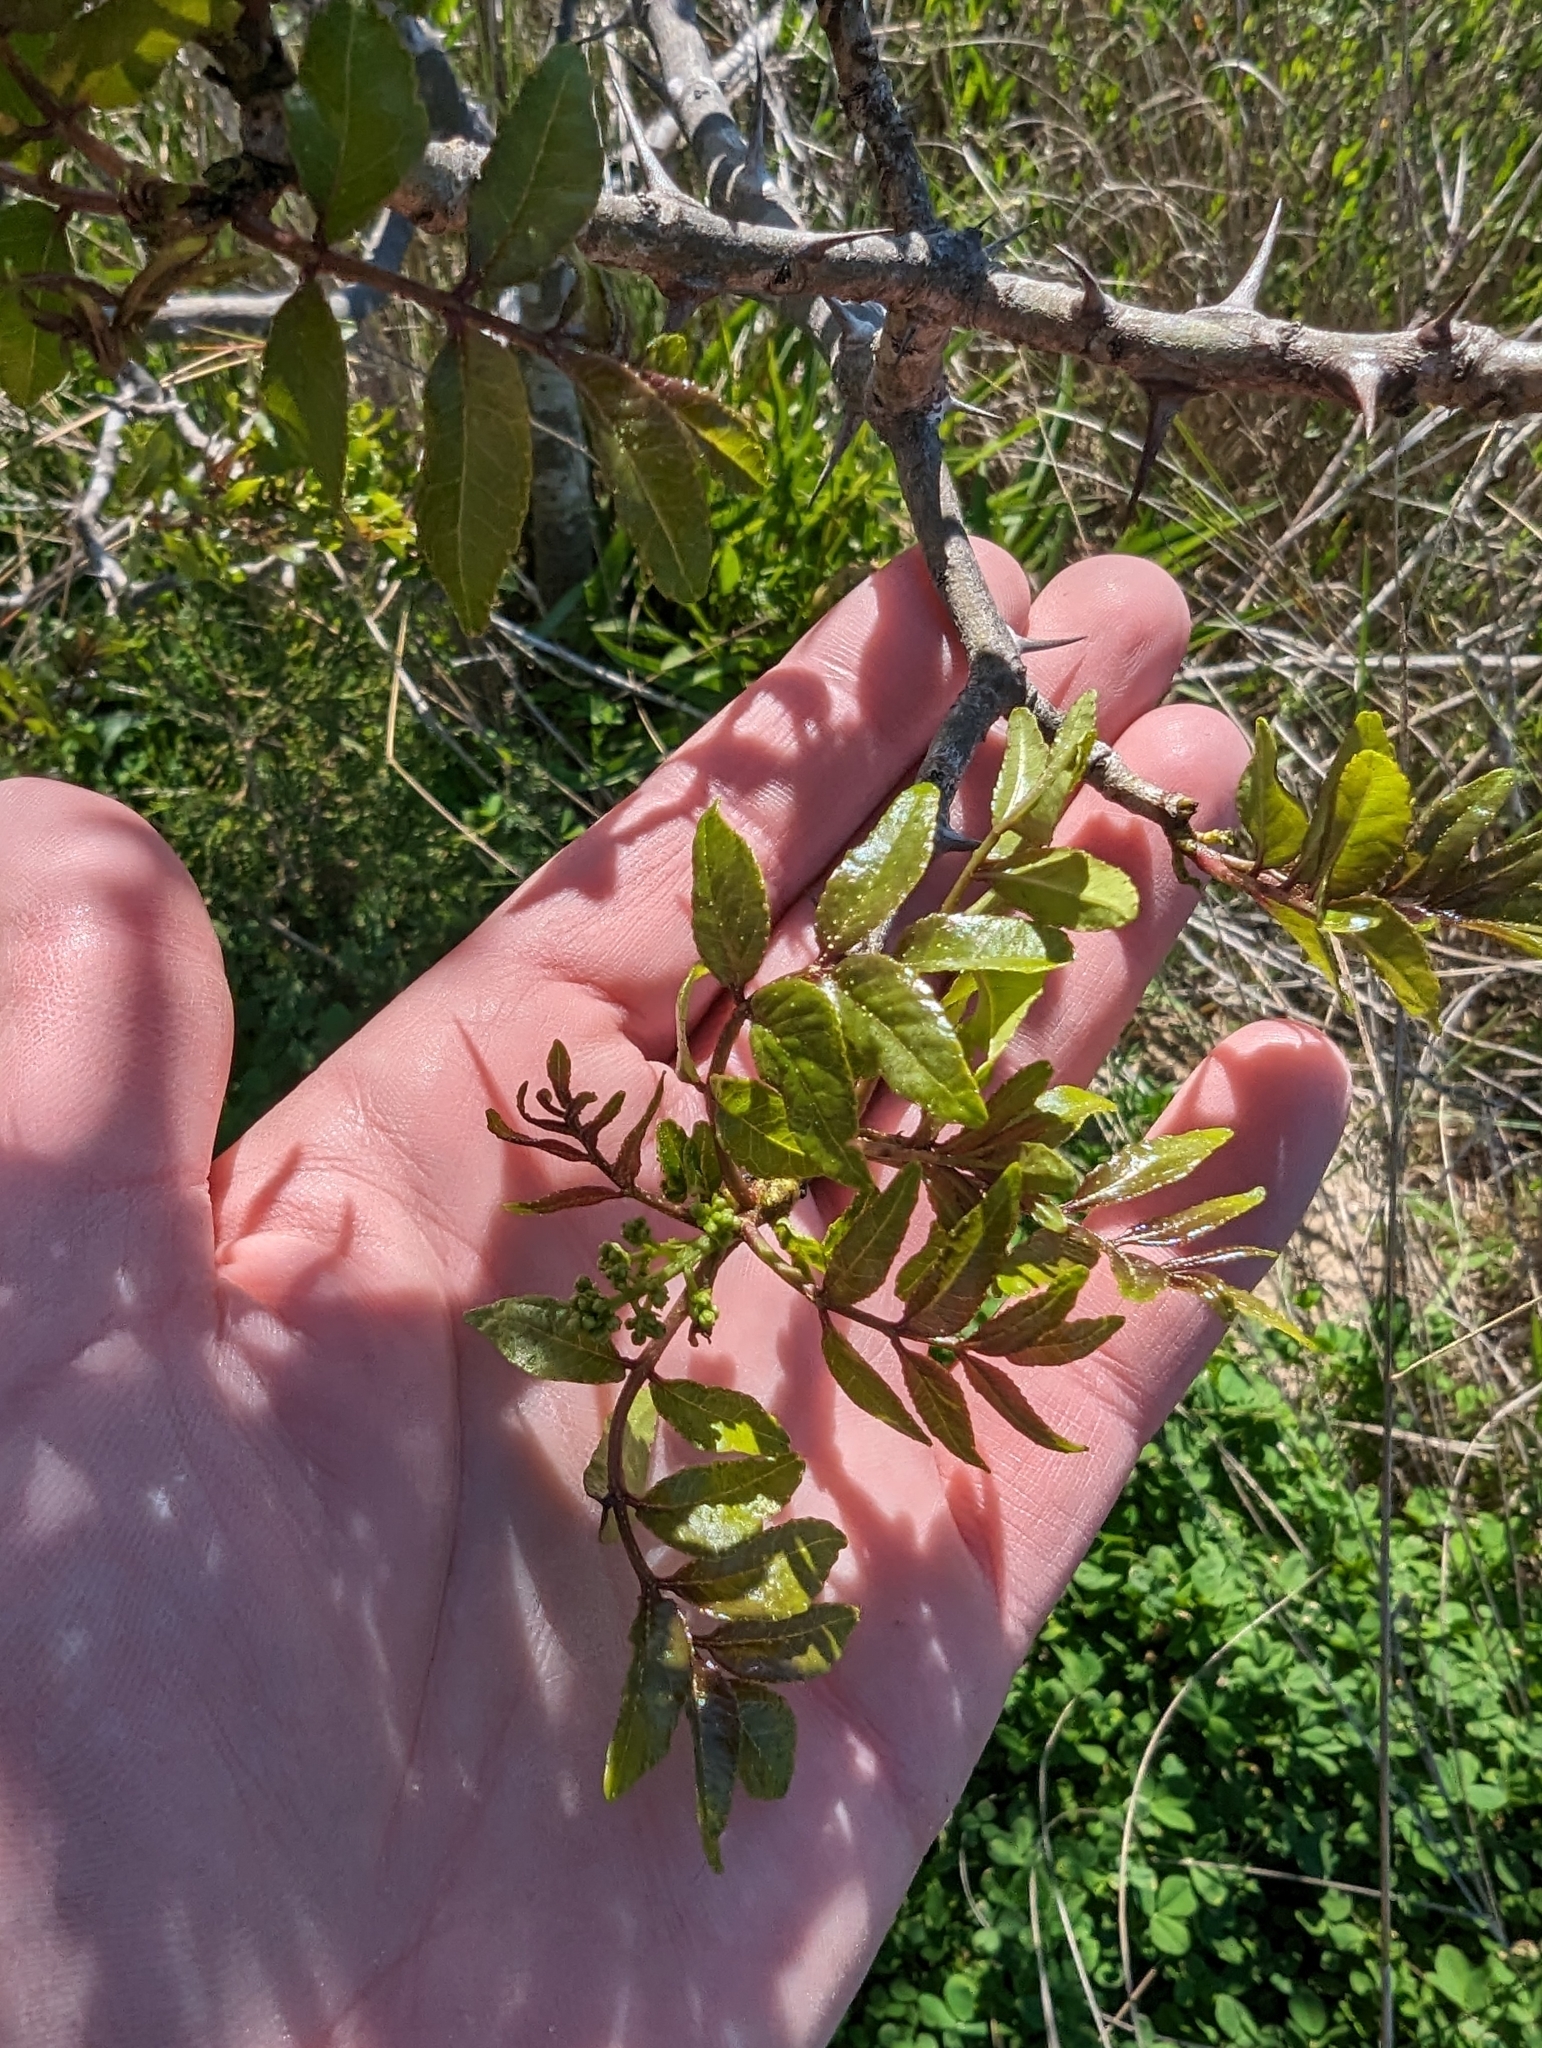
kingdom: Plantae
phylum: Tracheophyta
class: Magnoliopsida
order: Sapindales
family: Rutaceae
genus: Zanthoxylum
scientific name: Zanthoxylum clava-herculis
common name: Hercules'-club
